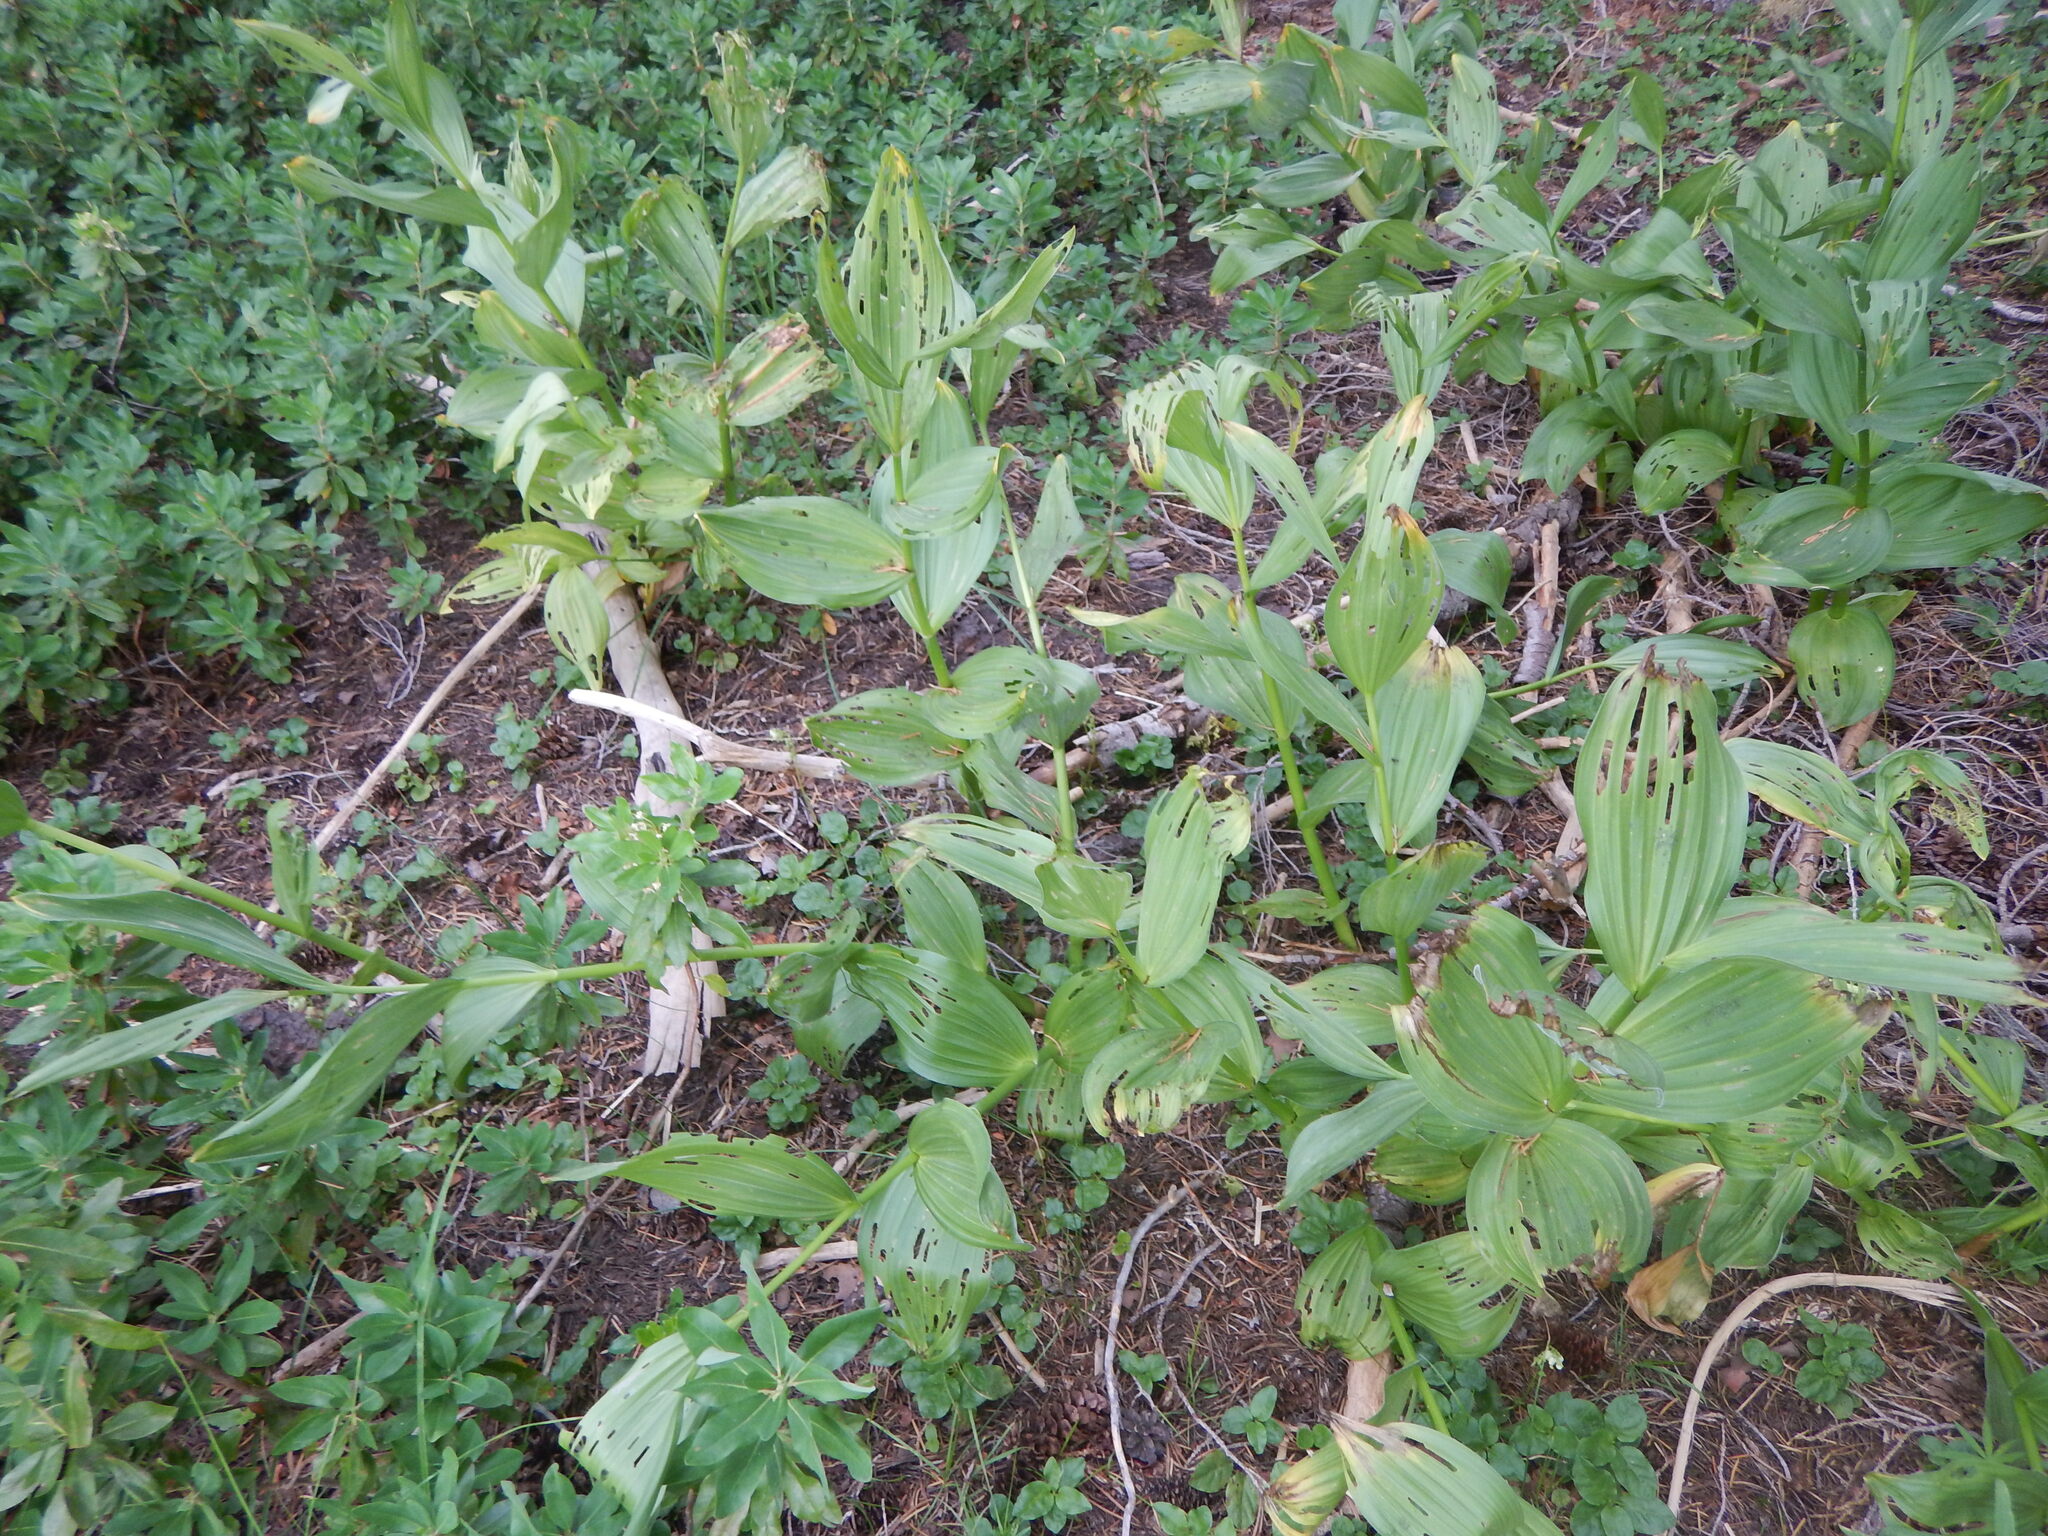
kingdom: Plantae
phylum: Tracheophyta
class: Liliopsida
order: Liliales
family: Melanthiaceae
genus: Veratrum
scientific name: Veratrum californicum
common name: California veratrum
